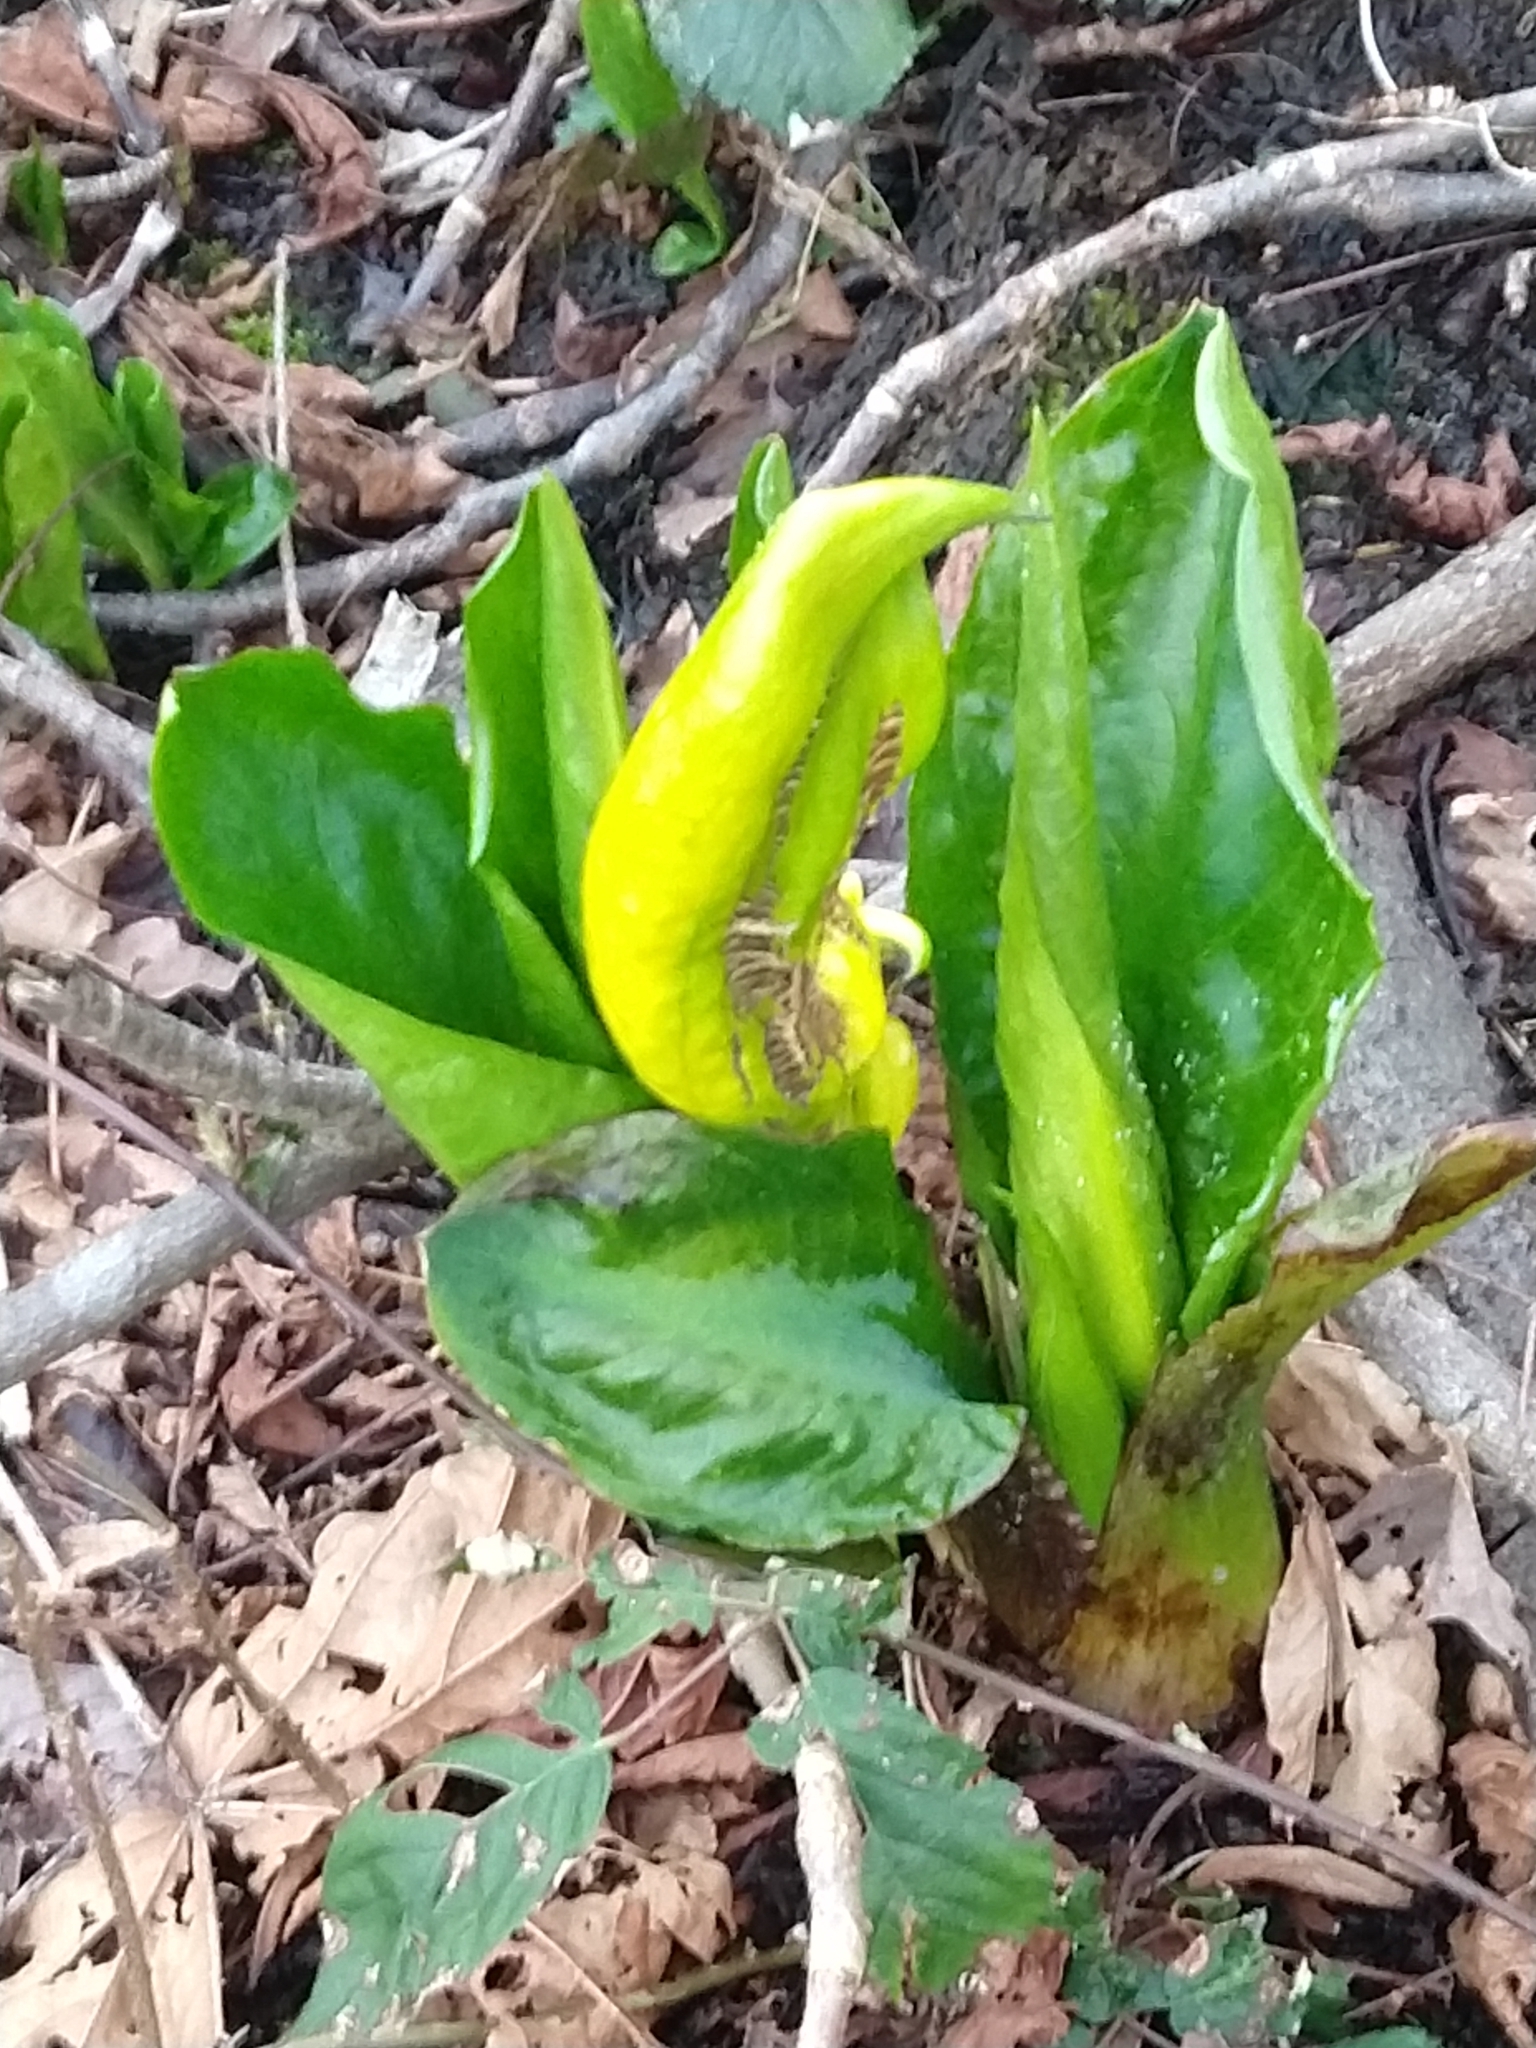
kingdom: Plantae
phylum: Tracheophyta
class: Liliopsida
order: Alismatales
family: Araceae
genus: Lysichiton
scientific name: Lysichiton americanus
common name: American skunk cabbage
